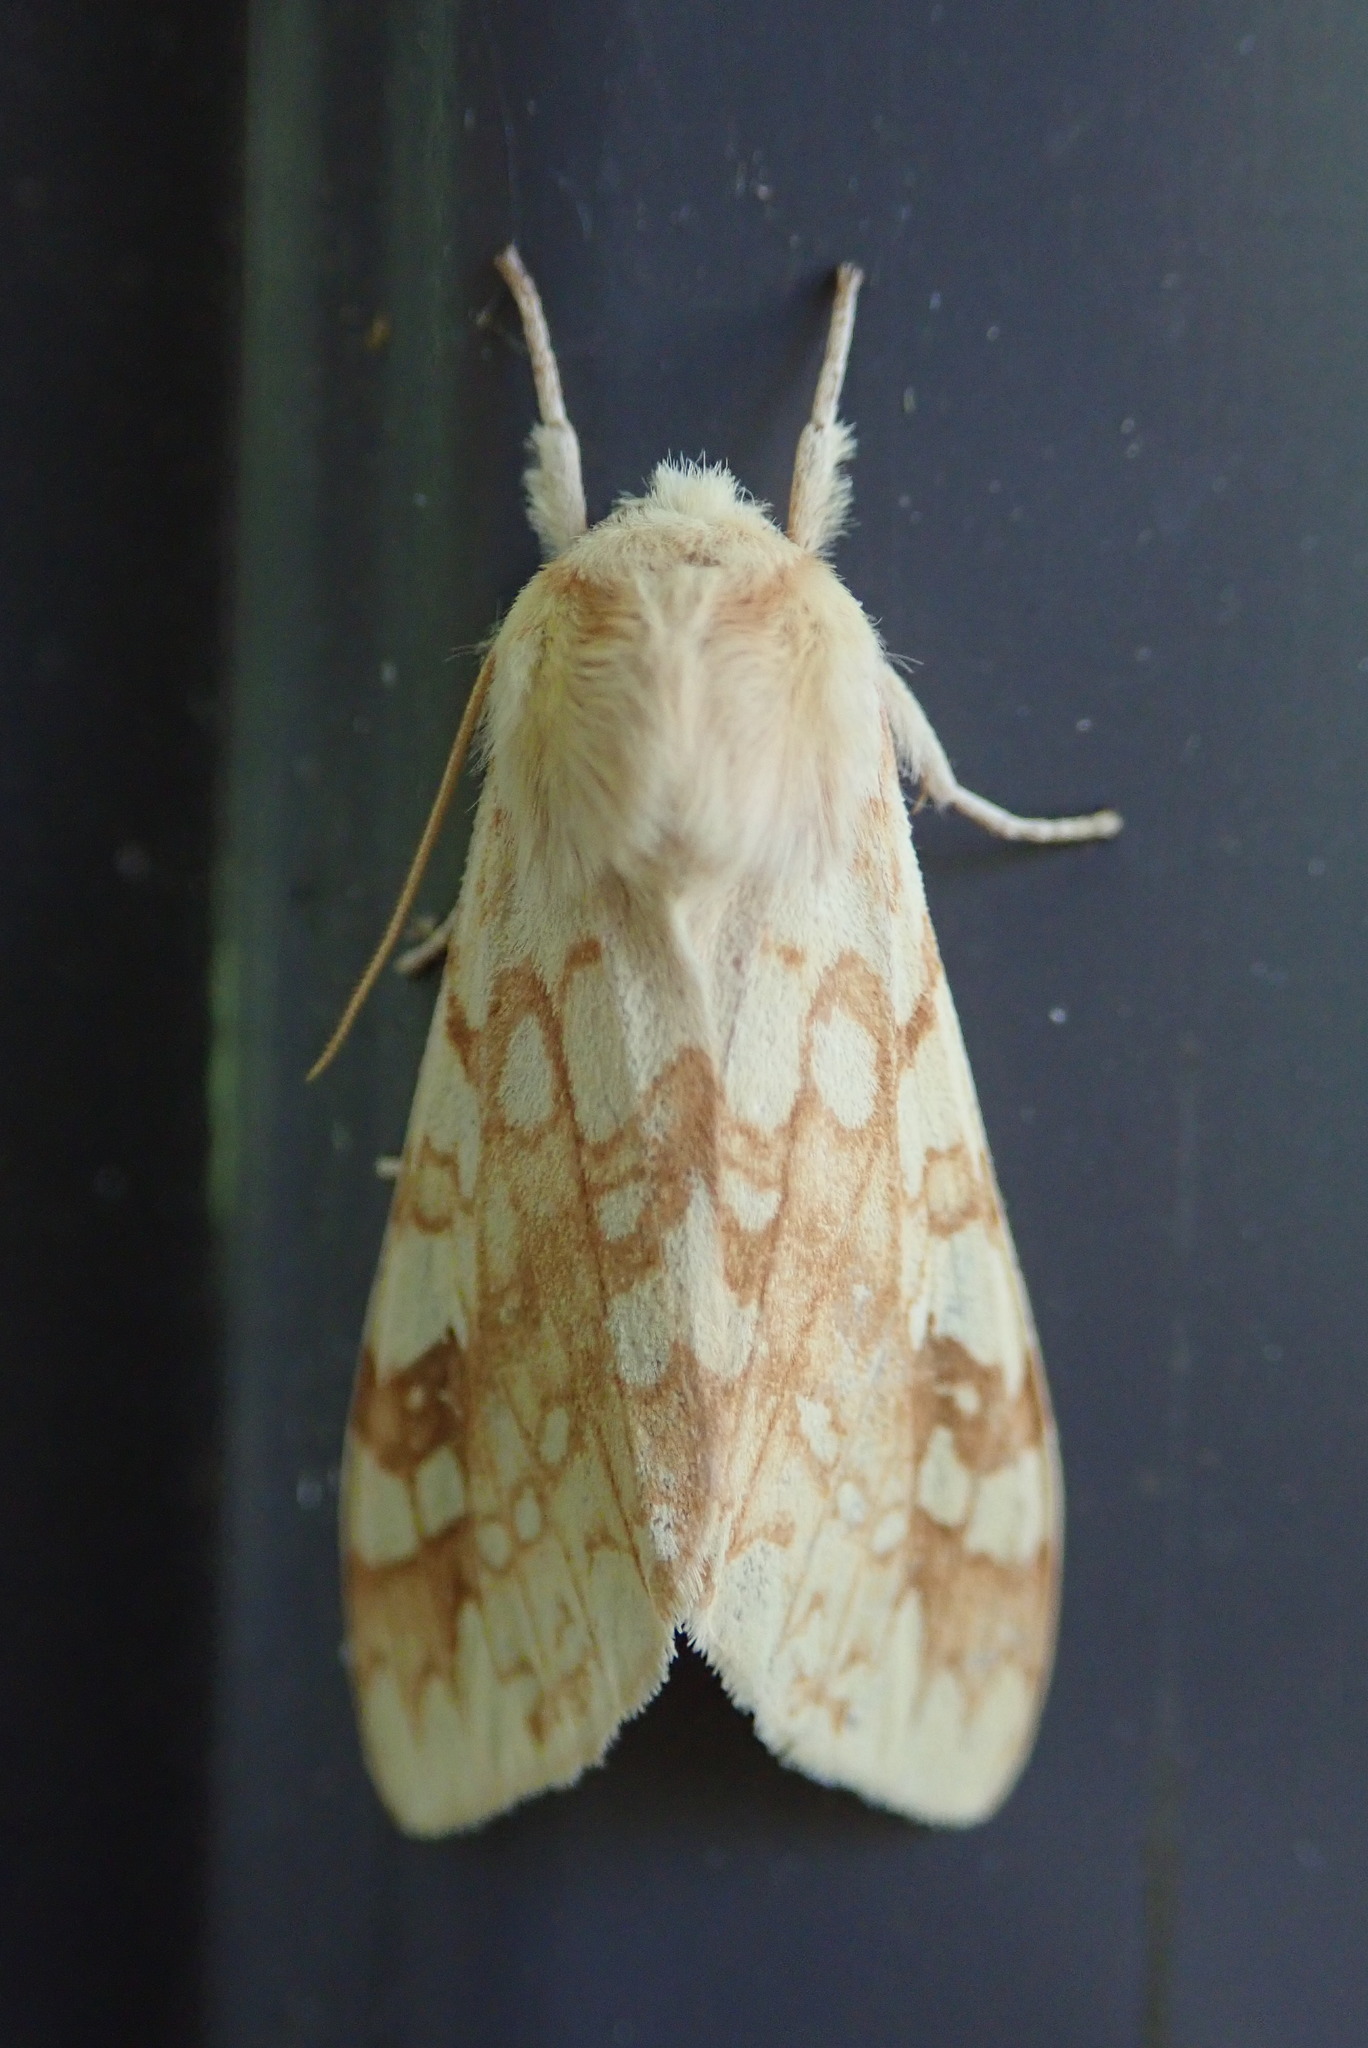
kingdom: Animalia
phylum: Arthropoda
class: Insecta
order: Lepidoptera
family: Erebidae
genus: Lophocampa
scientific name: Lophocampa maculata
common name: Spotted tussock moth
